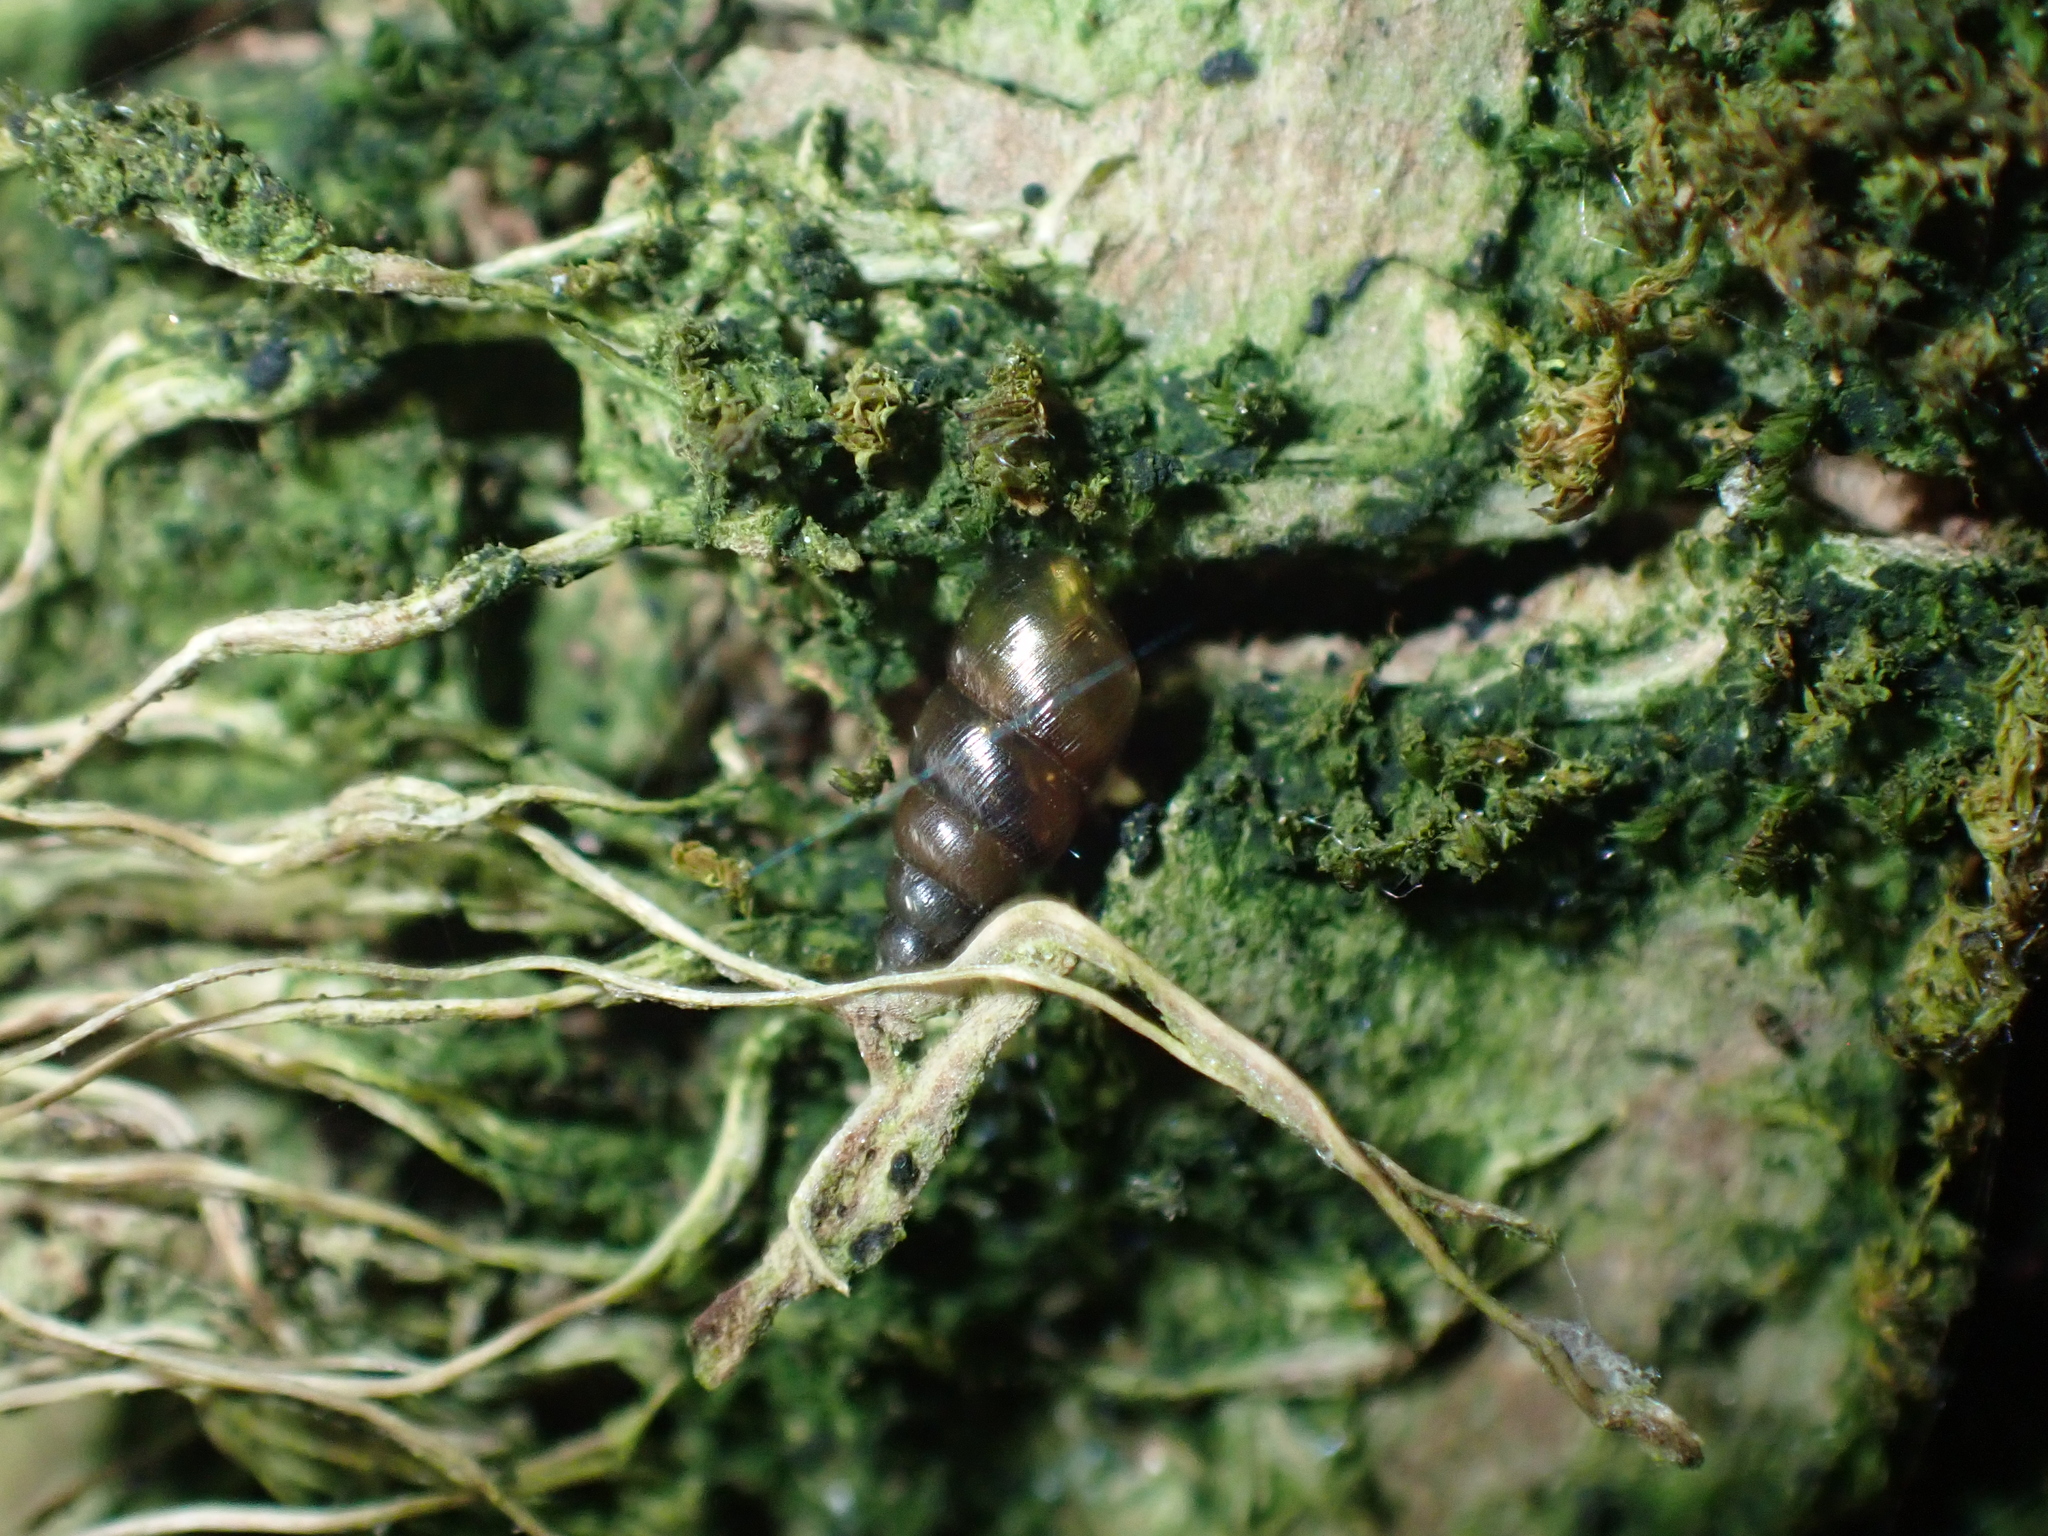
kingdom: Animalia
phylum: Mollusca
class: Gastropoda
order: Stylommatophora
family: Clausiliidae
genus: Balea
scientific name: Balea heydeni
